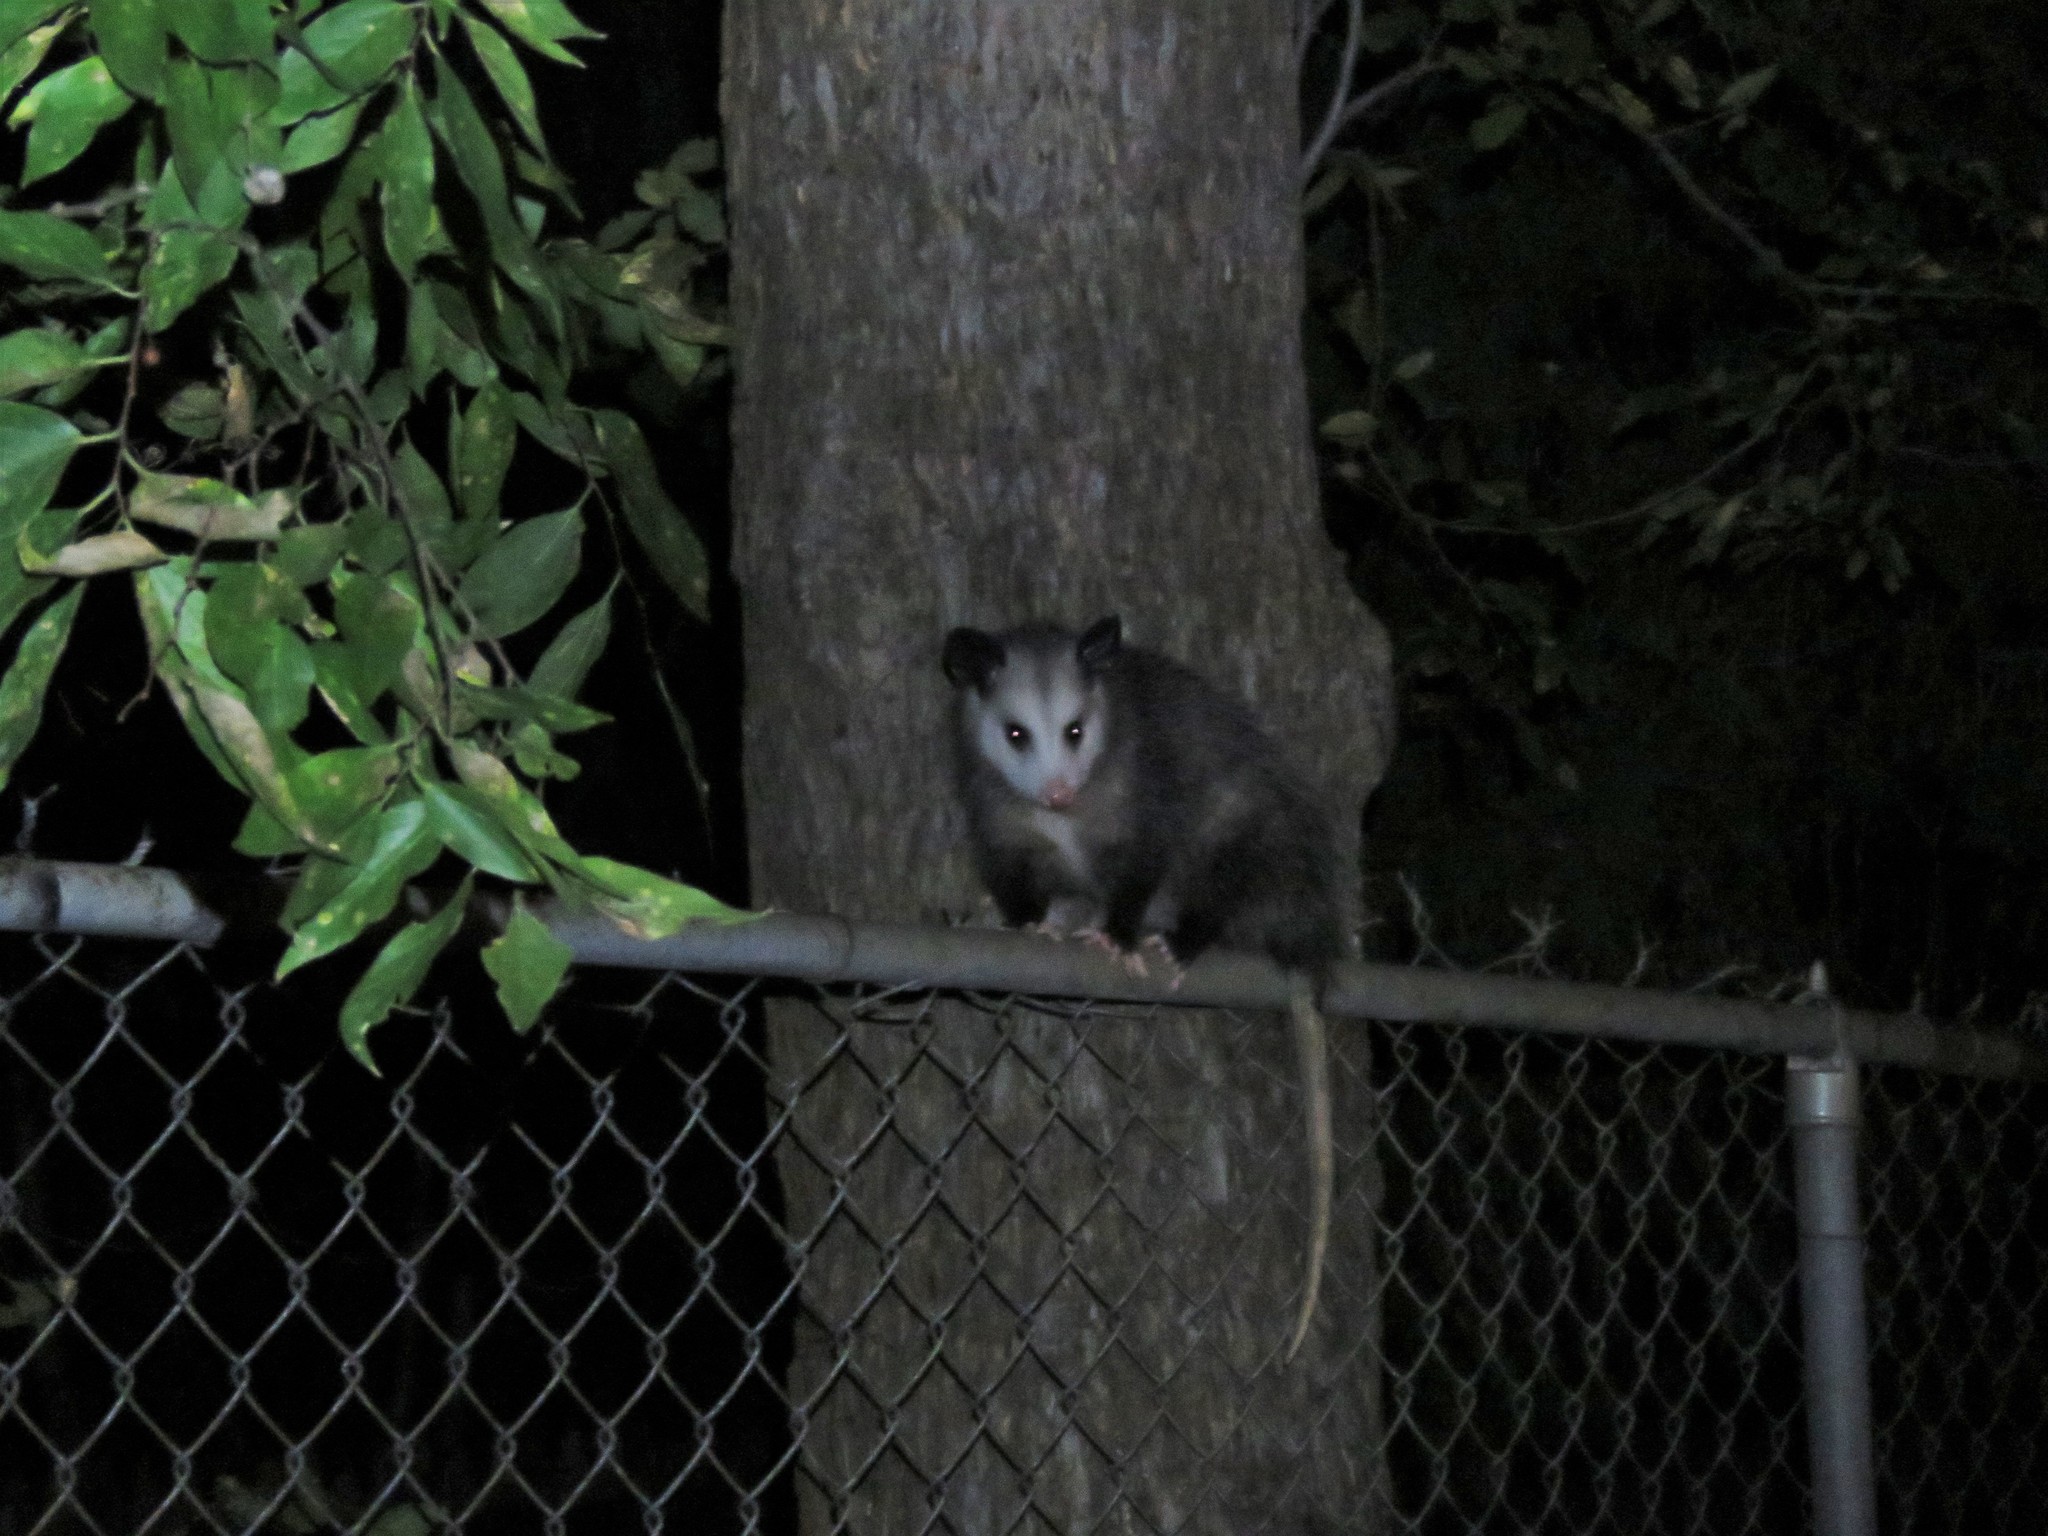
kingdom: Animalia
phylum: Chordata
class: Mammalia
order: Didelphimorphia
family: Didelphidae
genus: Didelphis
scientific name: Didelphis virginiana
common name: Virginia opossum
